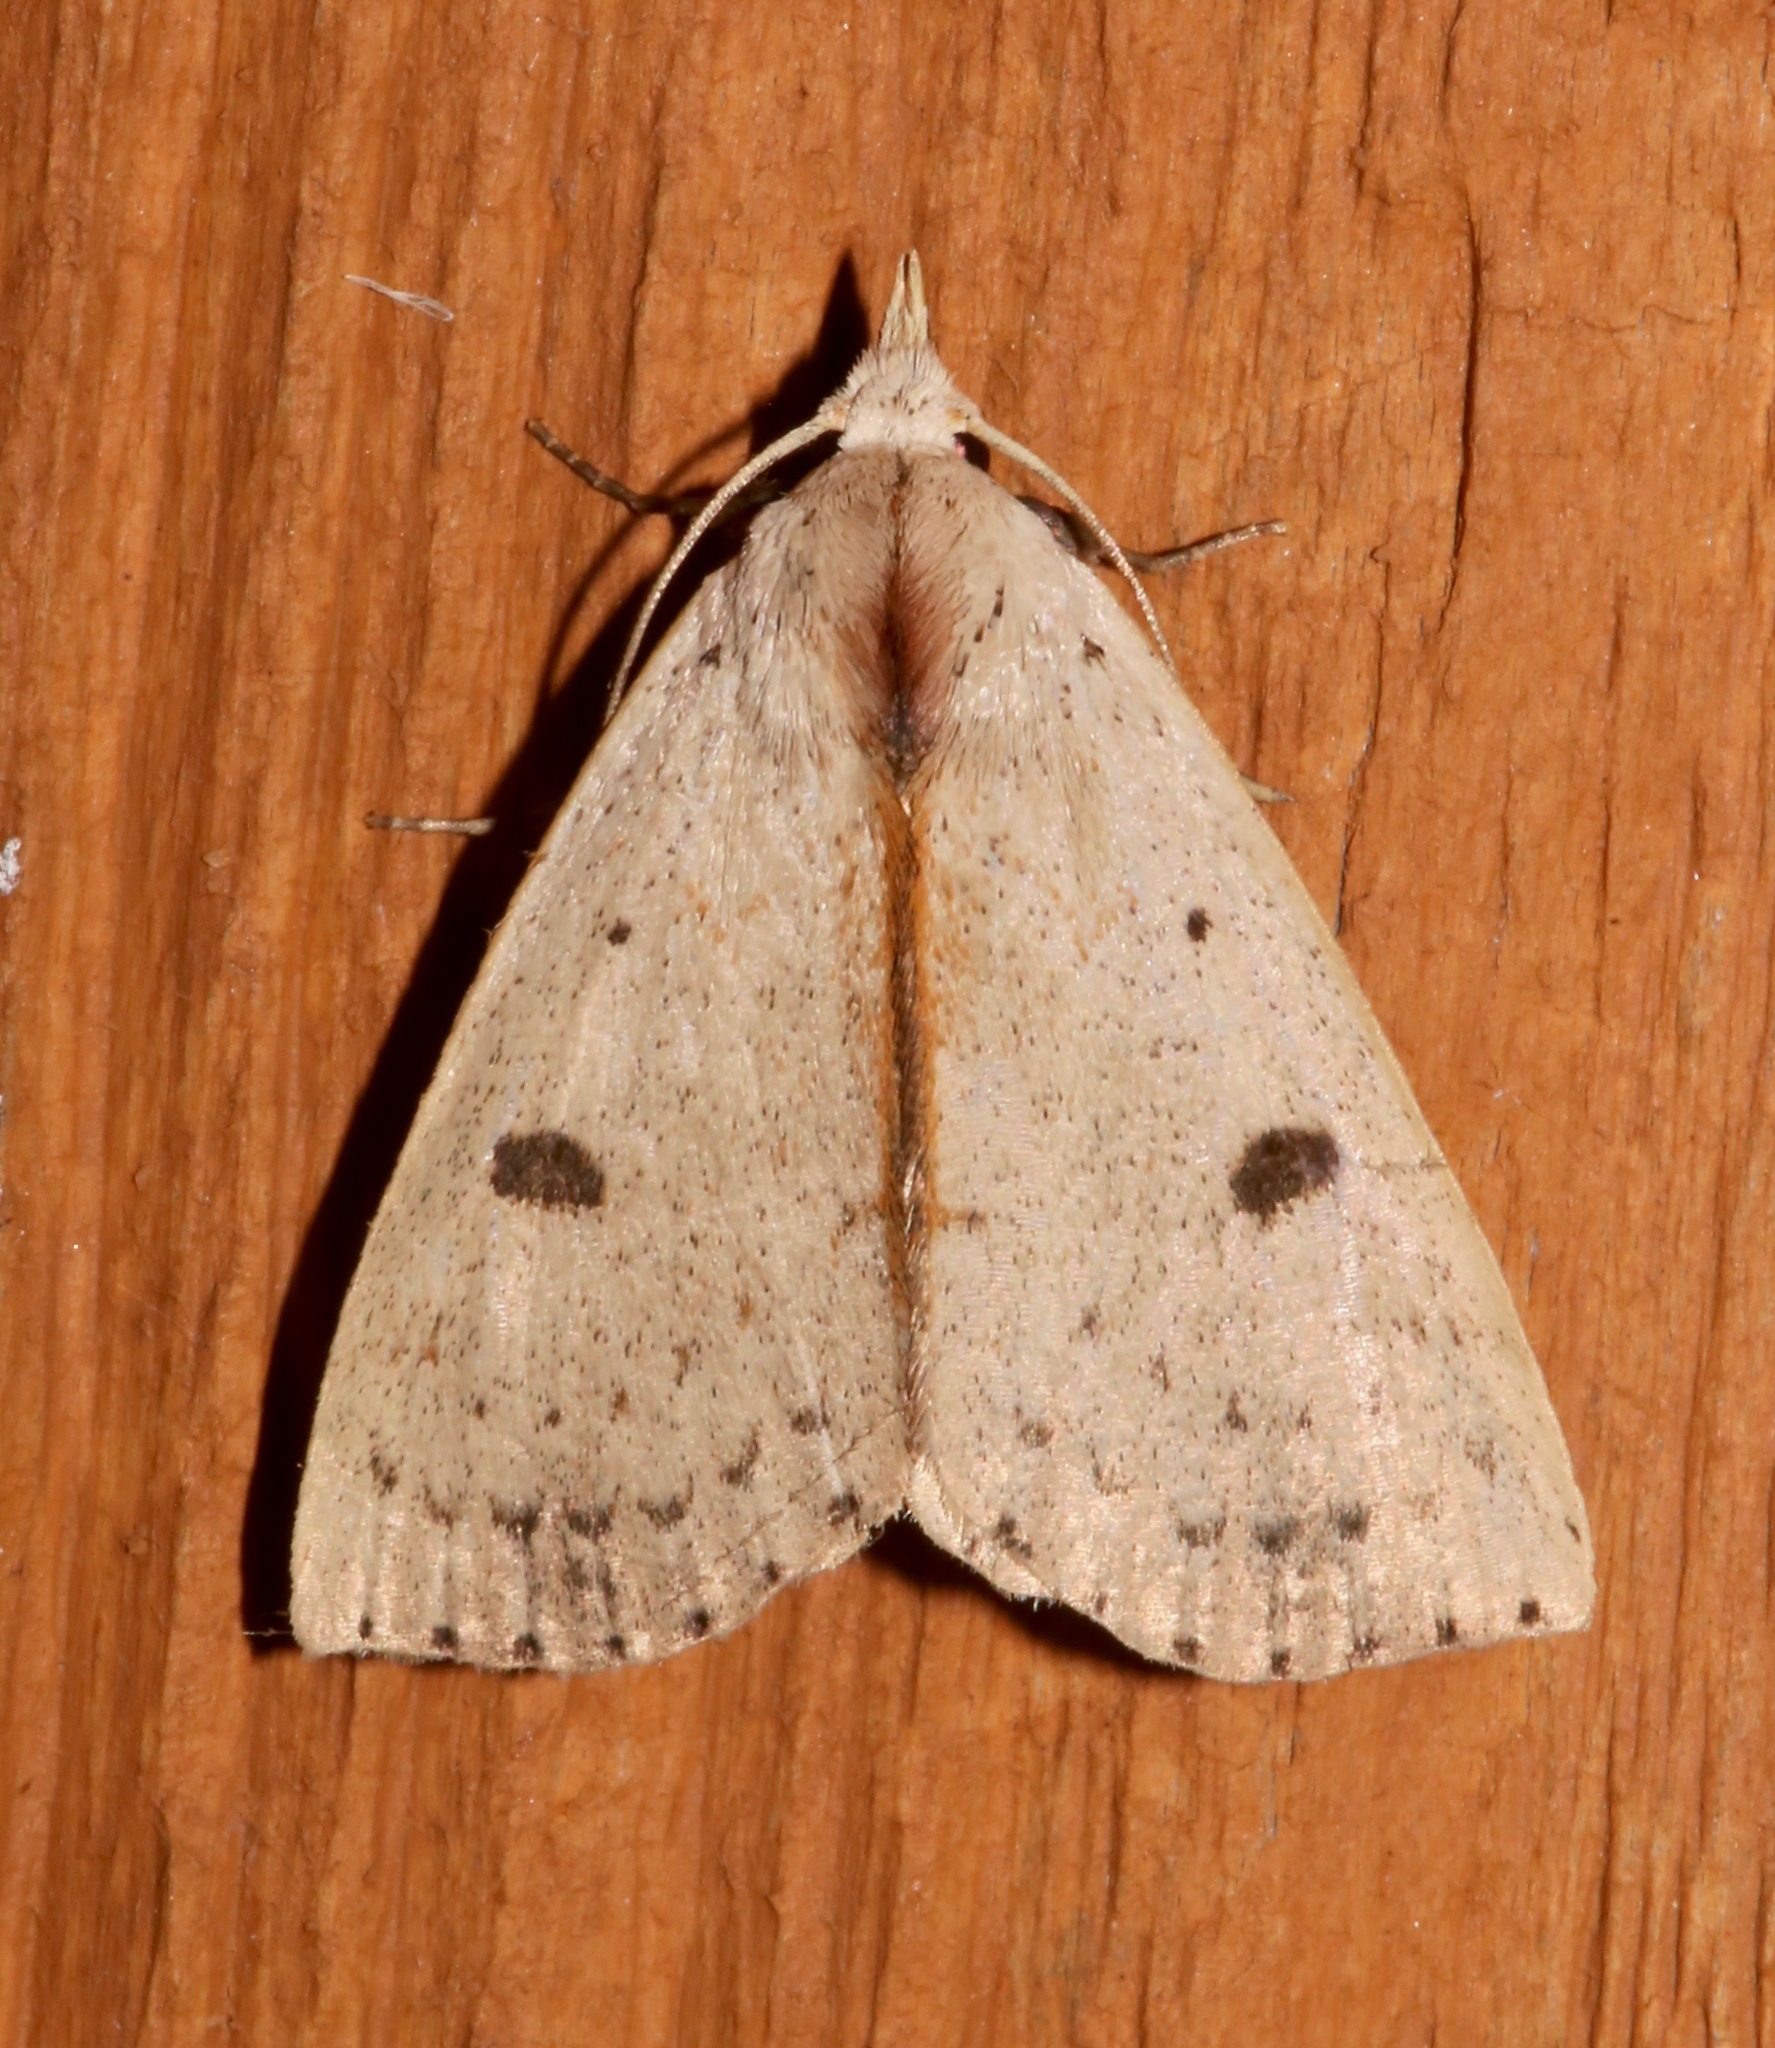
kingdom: Animalia
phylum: Arthropoda
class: Insecta
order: Lepidoptera
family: Erebidae
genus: Scolecocampa
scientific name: Scolecocampa liburna
